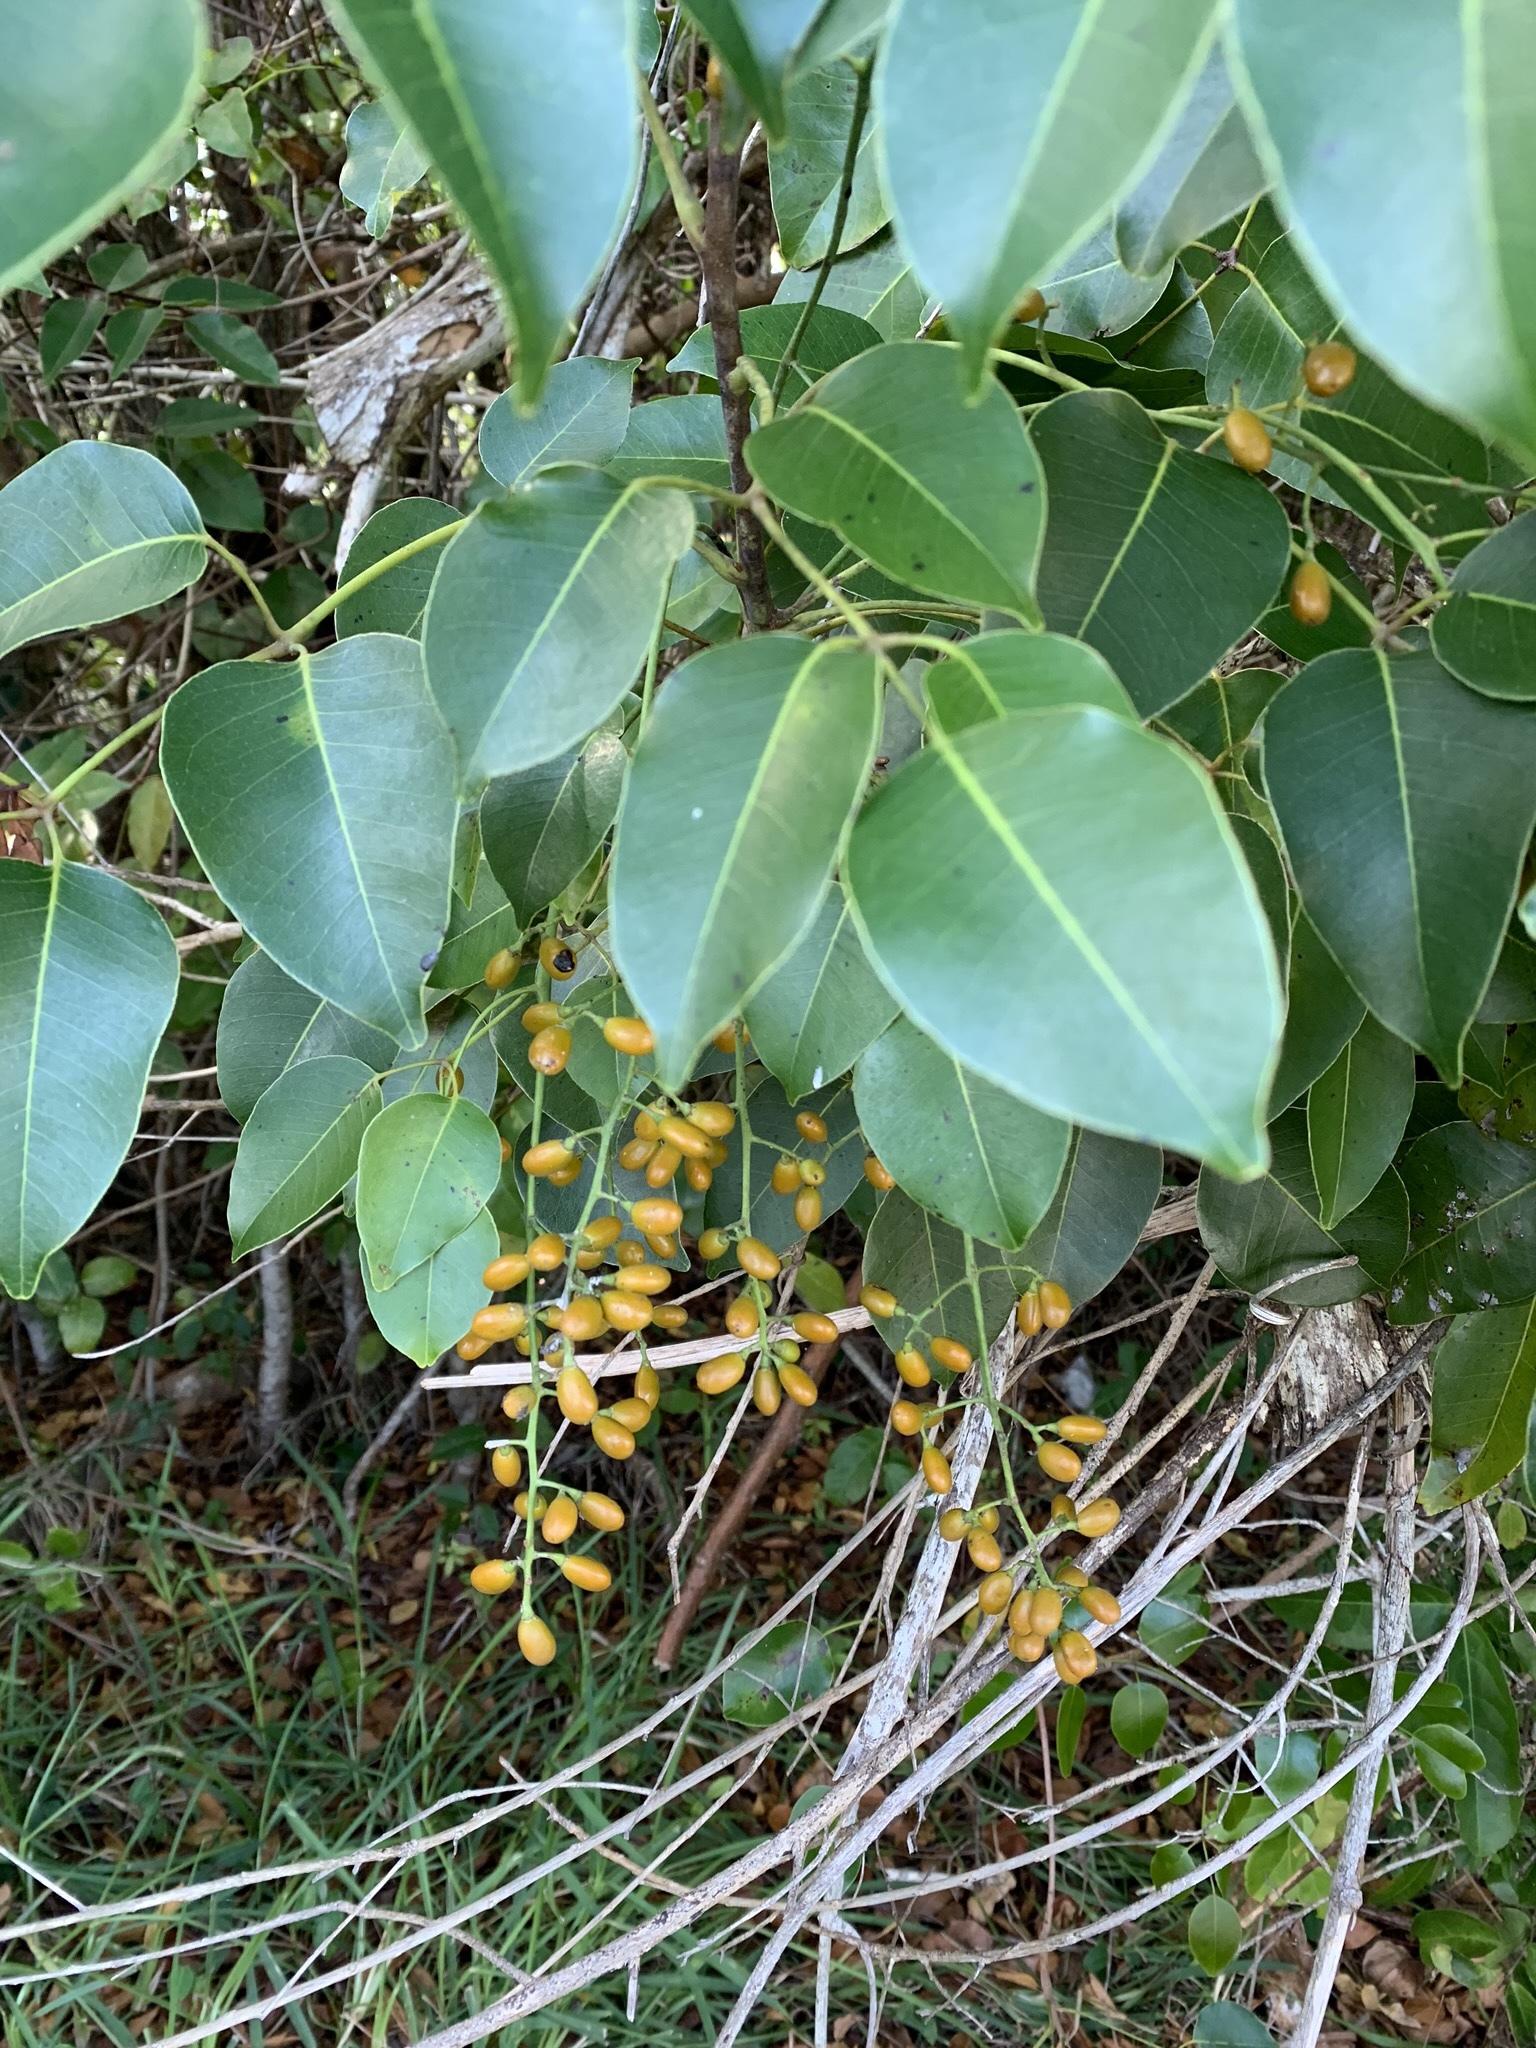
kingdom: Plantae
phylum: Tracheophyta
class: Magnoliopsida
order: Sapindales
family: Anacardiaceae
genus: Metopium
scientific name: Metopium toxiferum
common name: Florida poisontree
